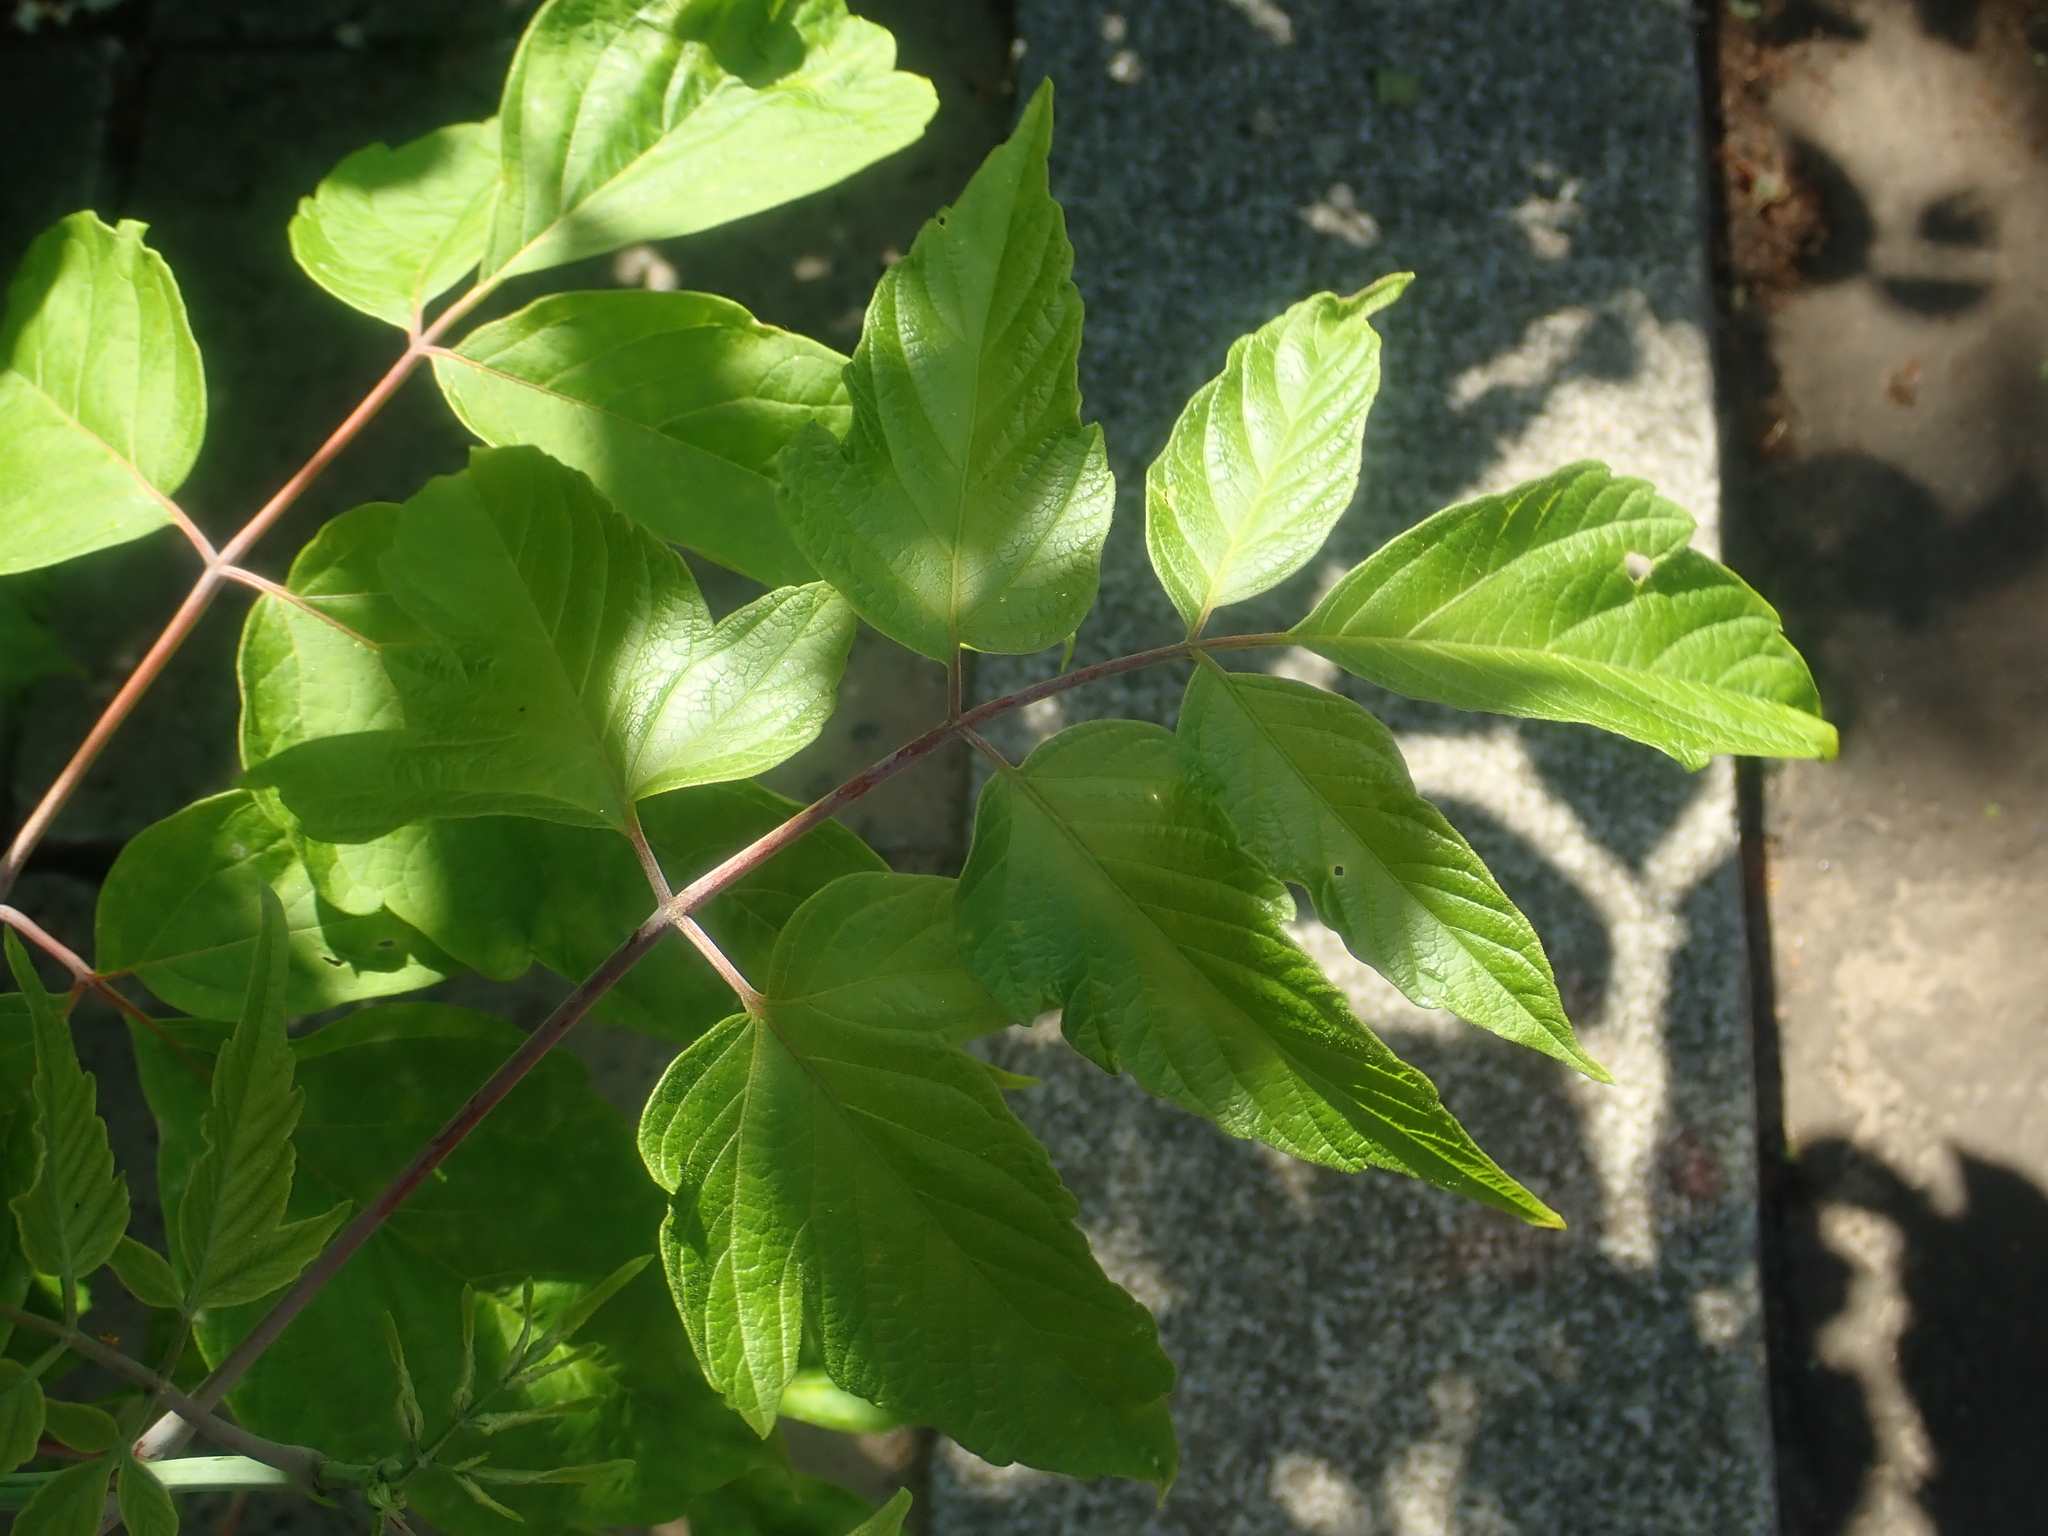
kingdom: Plantae
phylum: Tracheophyta
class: Magnoliopsida
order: Sapindales
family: Sapindaceae
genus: Acer
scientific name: Acer negundo
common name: Ashleaf maple
